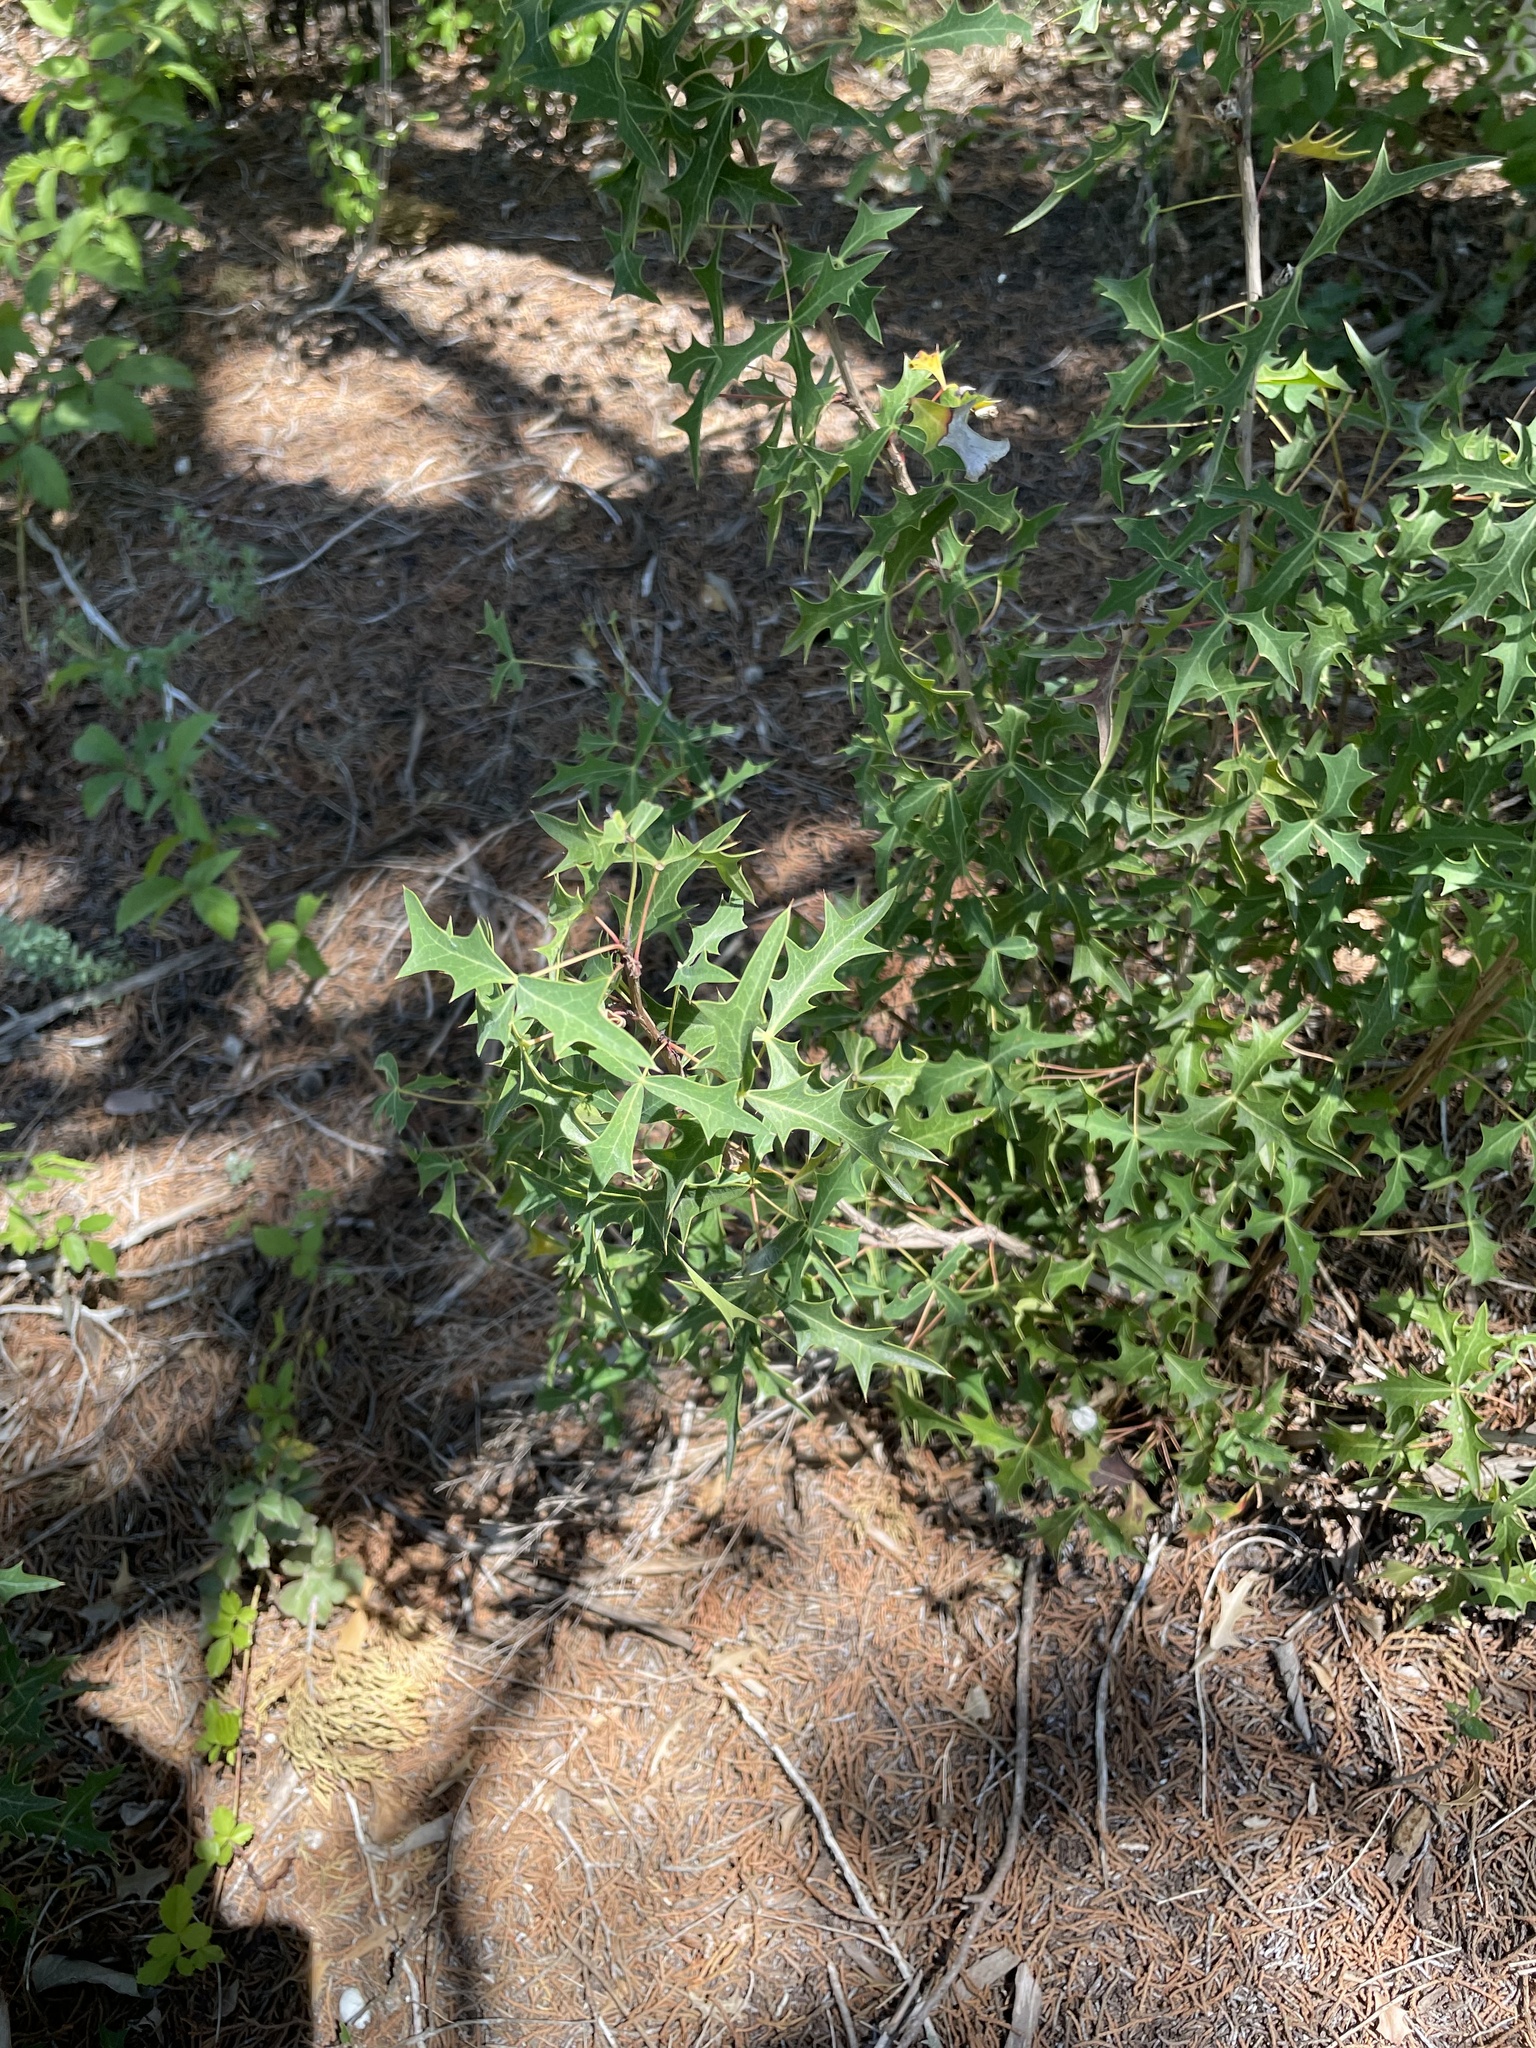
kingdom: Plantae
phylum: Tracheophyta
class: Magnoliopsida
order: Ranunculales
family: Berberidaceae
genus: Alloberberis
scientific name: Alloberberis trifoliolata
